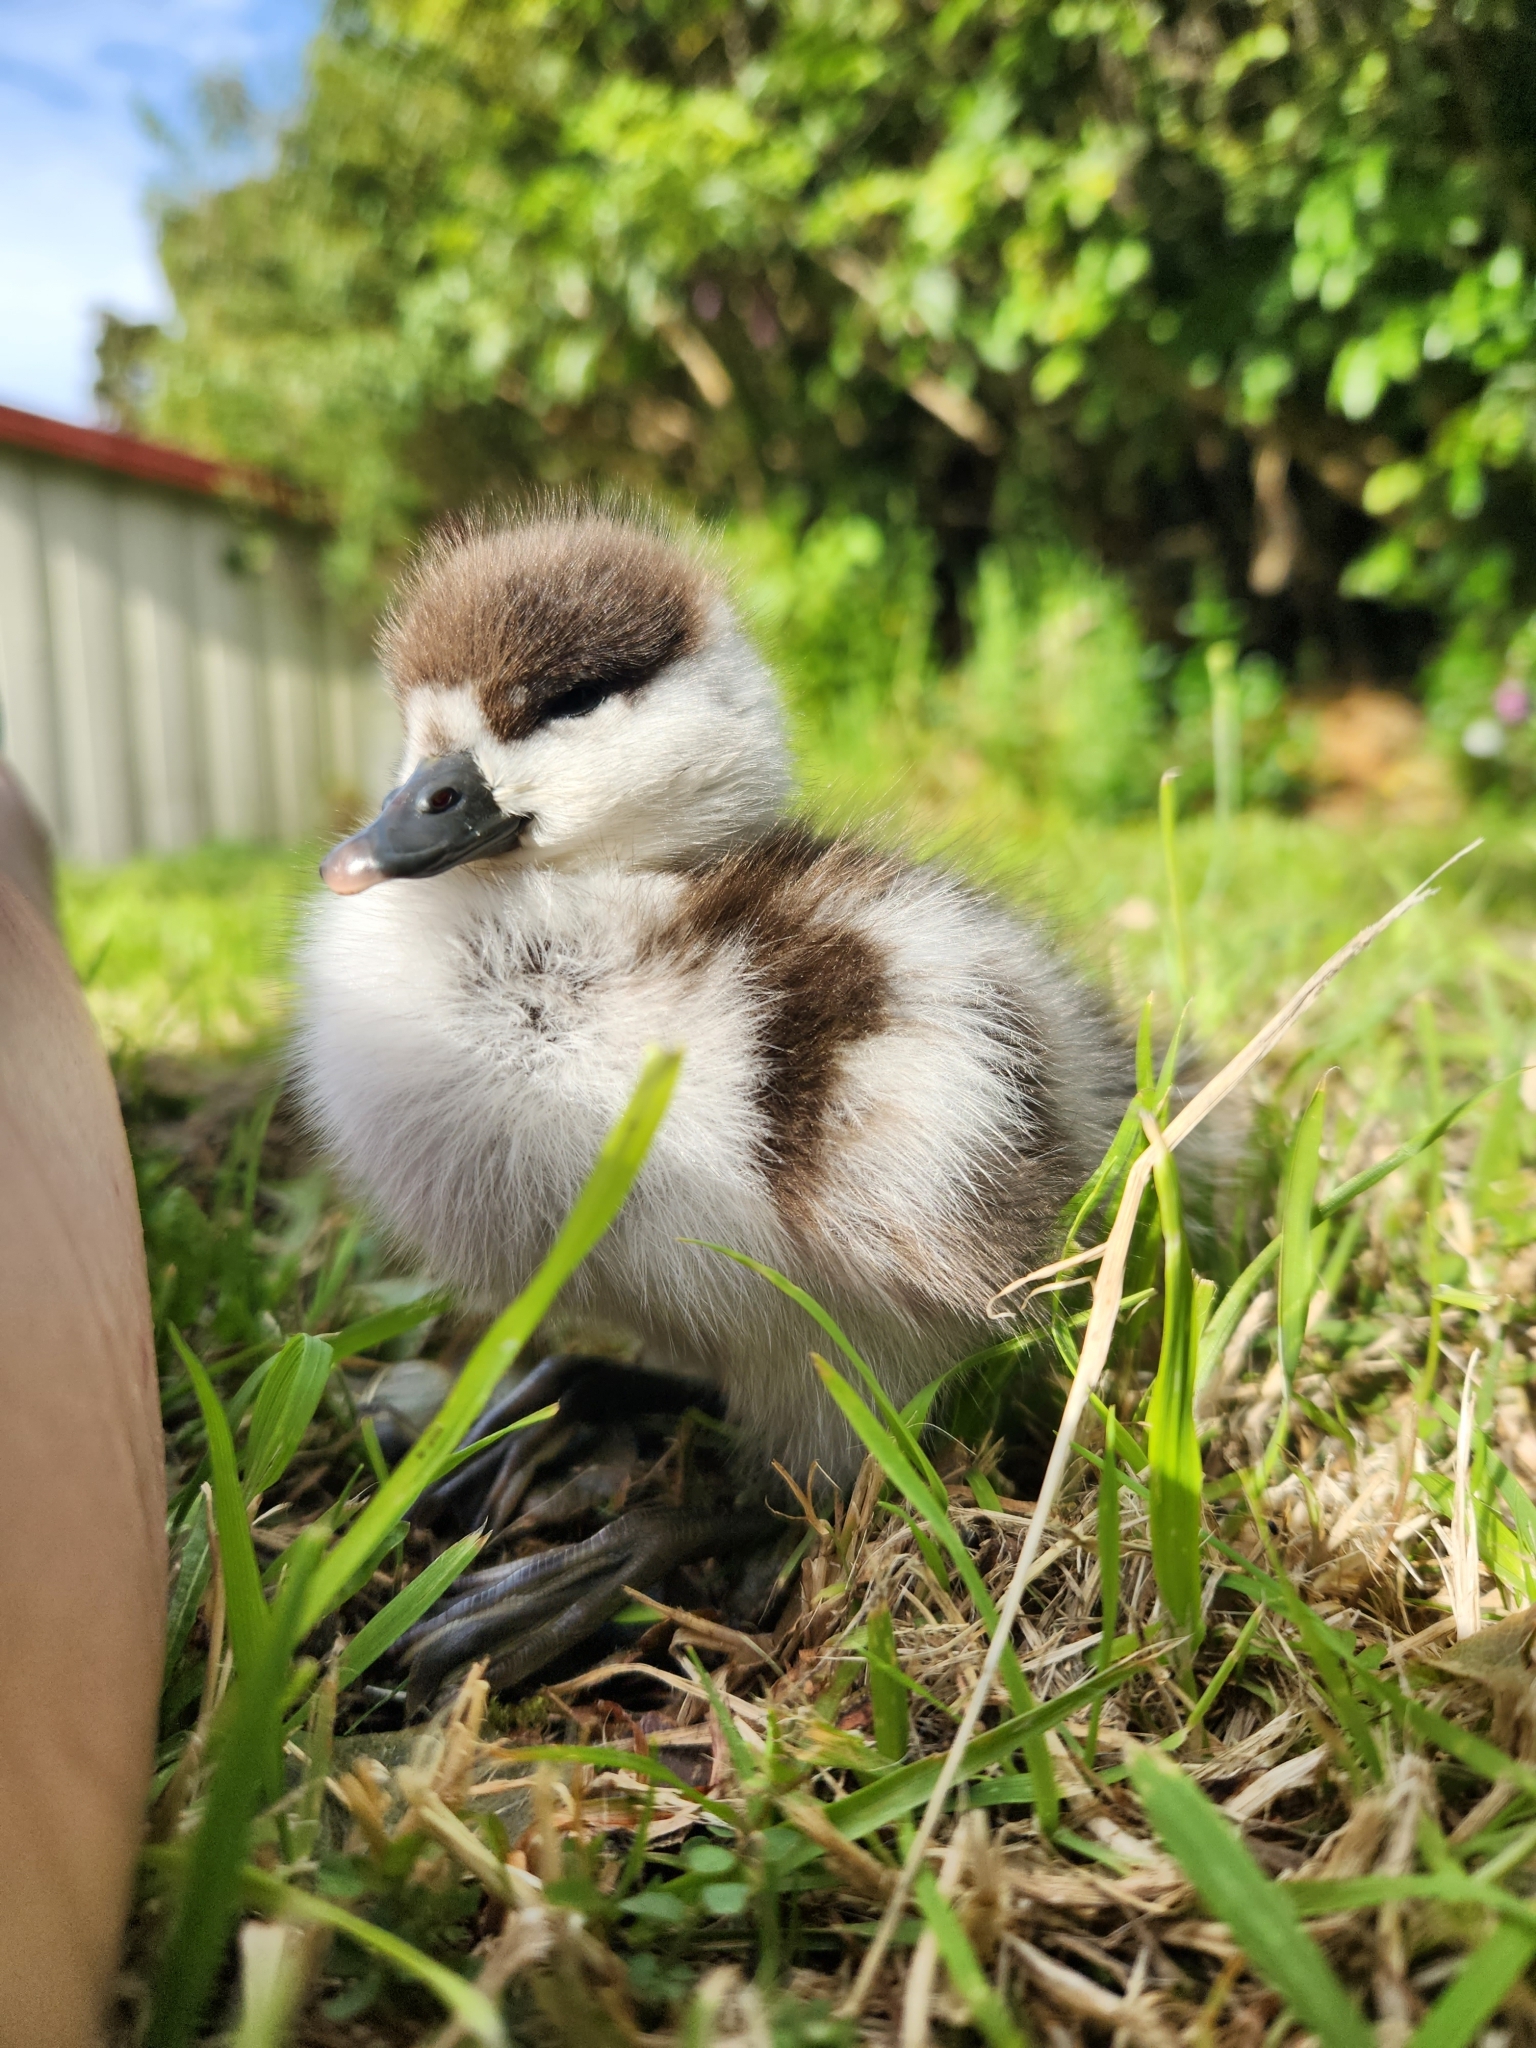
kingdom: Animalia
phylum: Chordata
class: Aves
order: Anseriformes
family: Anatidae
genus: Tadorna
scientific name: Tadorna variegata
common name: Paradise shelduck
